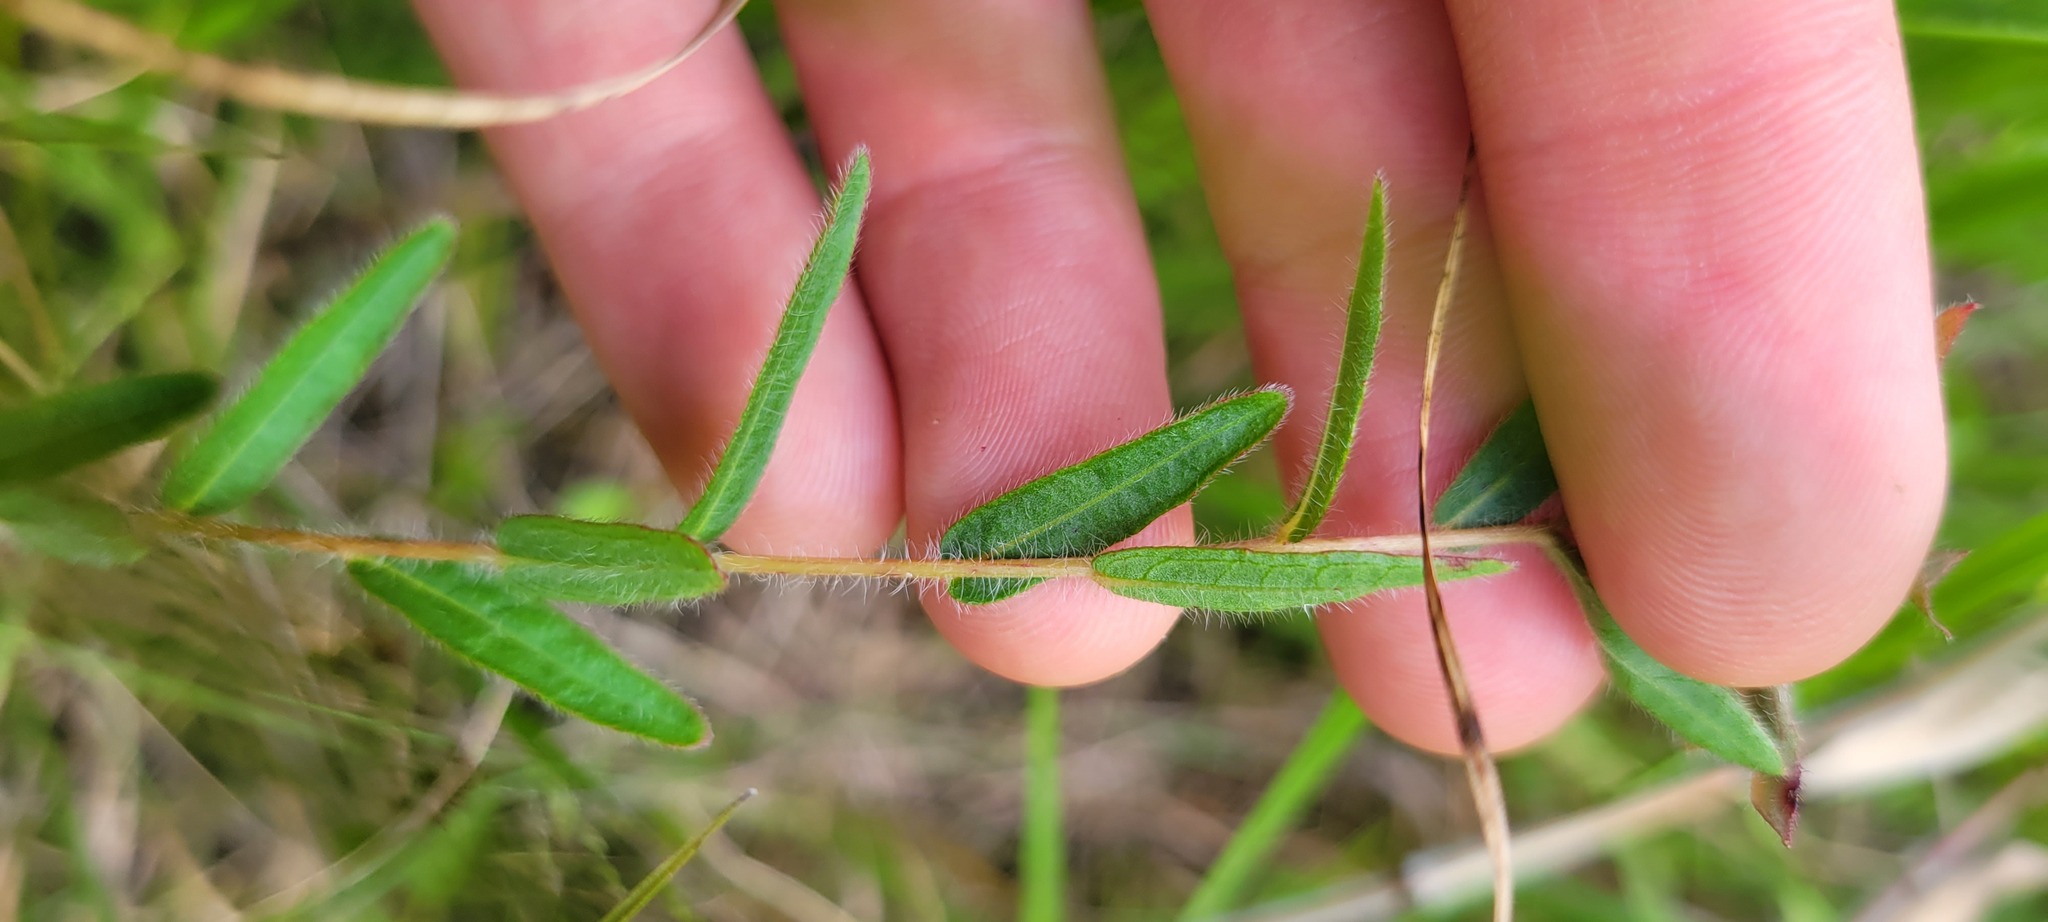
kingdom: Plantae
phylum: Tracheophyta
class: Magnoliopsida
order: Myrtales
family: Onagraceae
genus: Ludwigia
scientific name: Ludwigia hirtella
